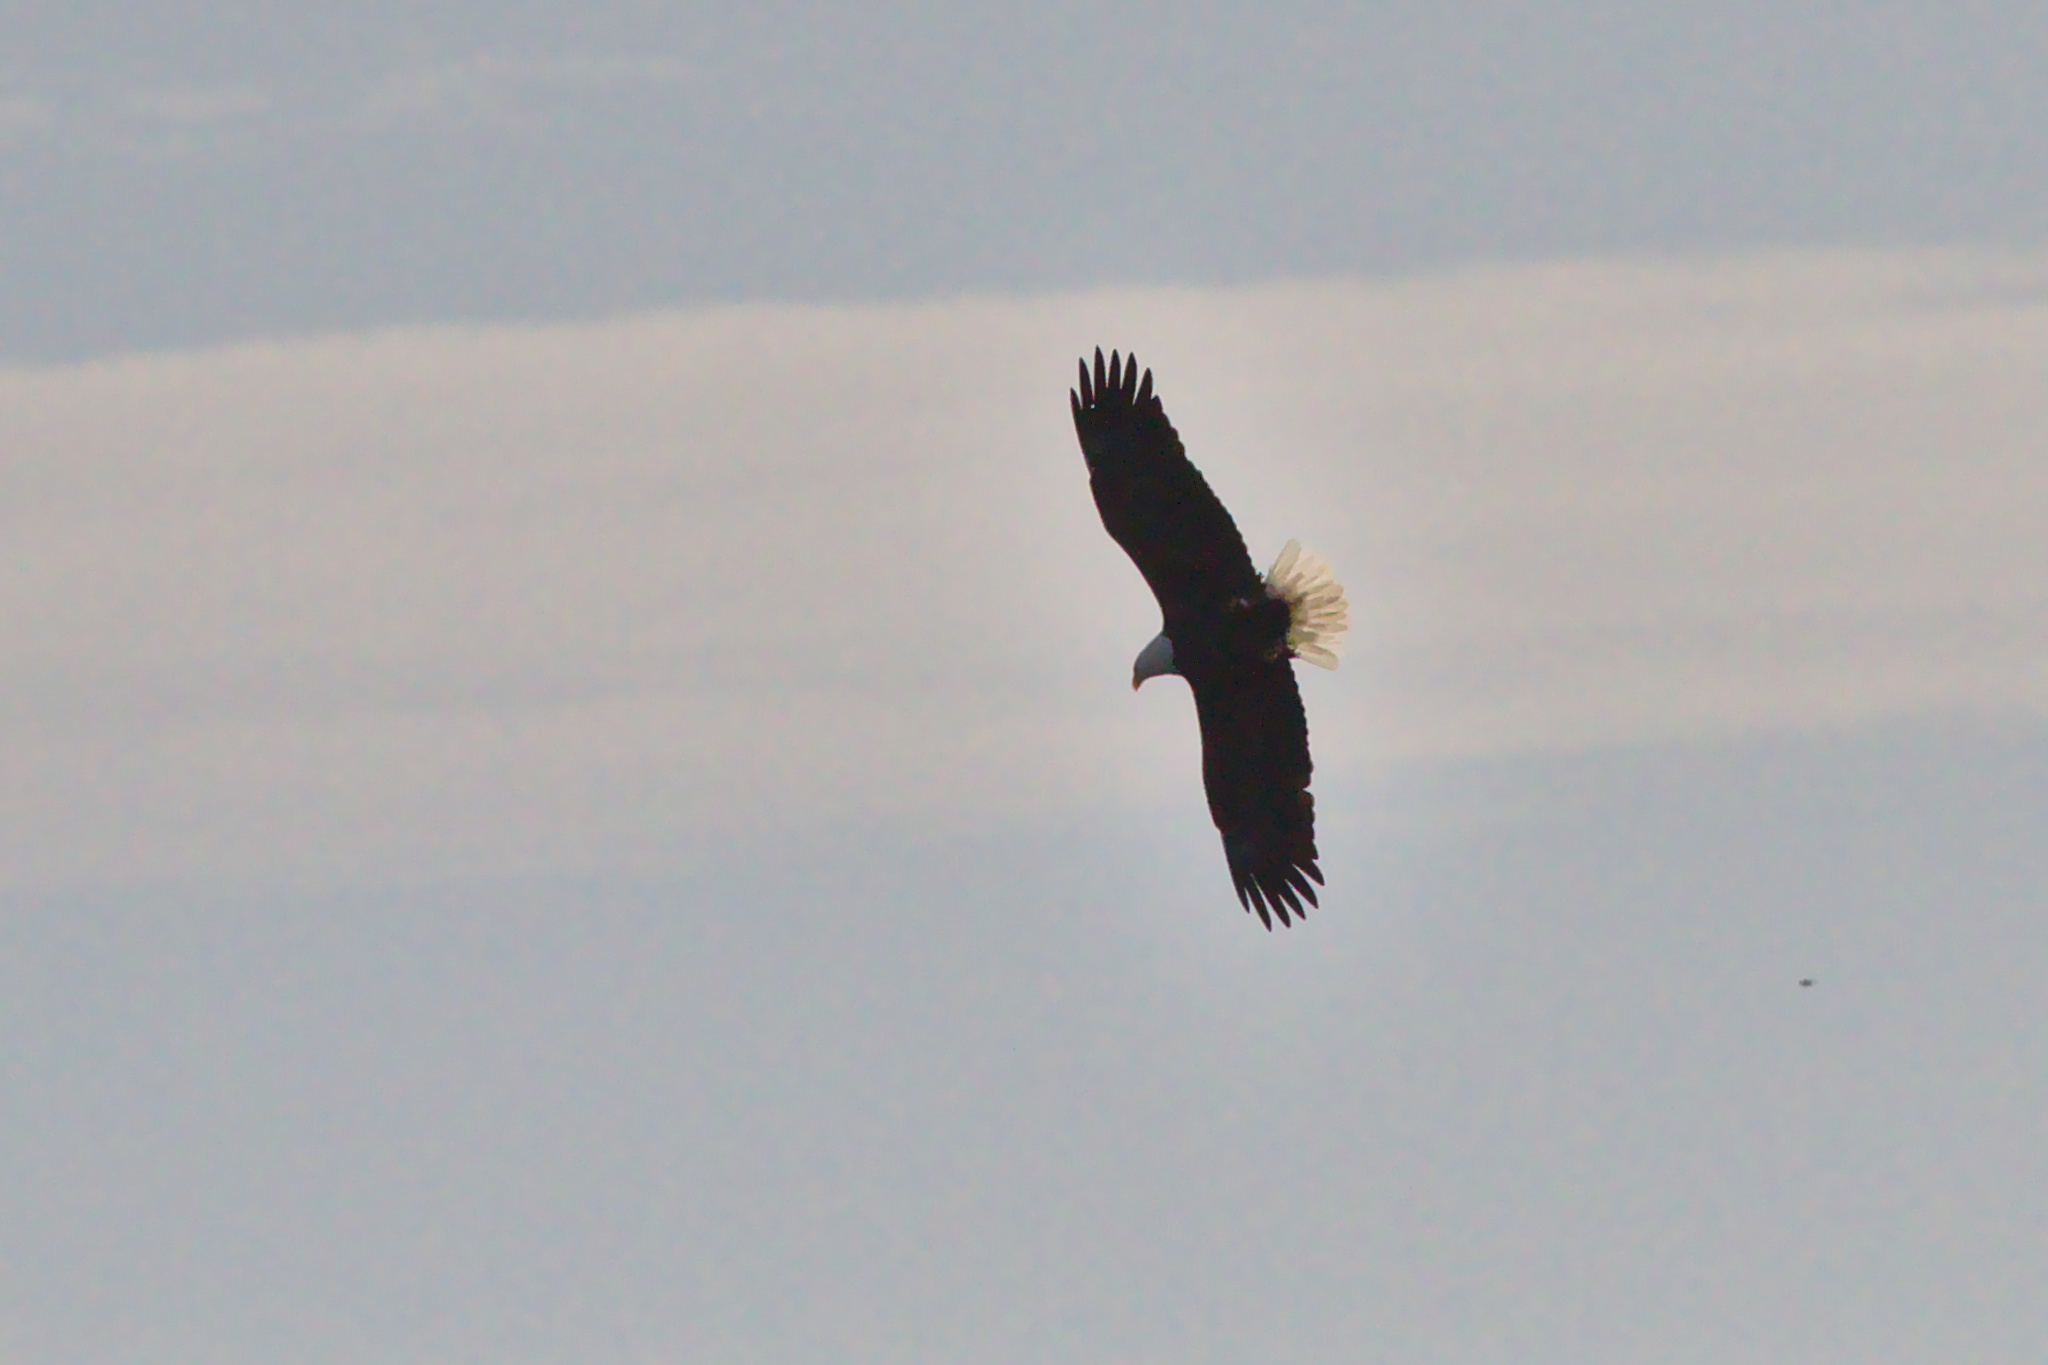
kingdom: Animalia
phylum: Chordata
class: Aves
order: Accipitriformes
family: Accipitridae
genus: Haliaeetus
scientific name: Haliaeetus leucocephalus
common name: Bald eagle
